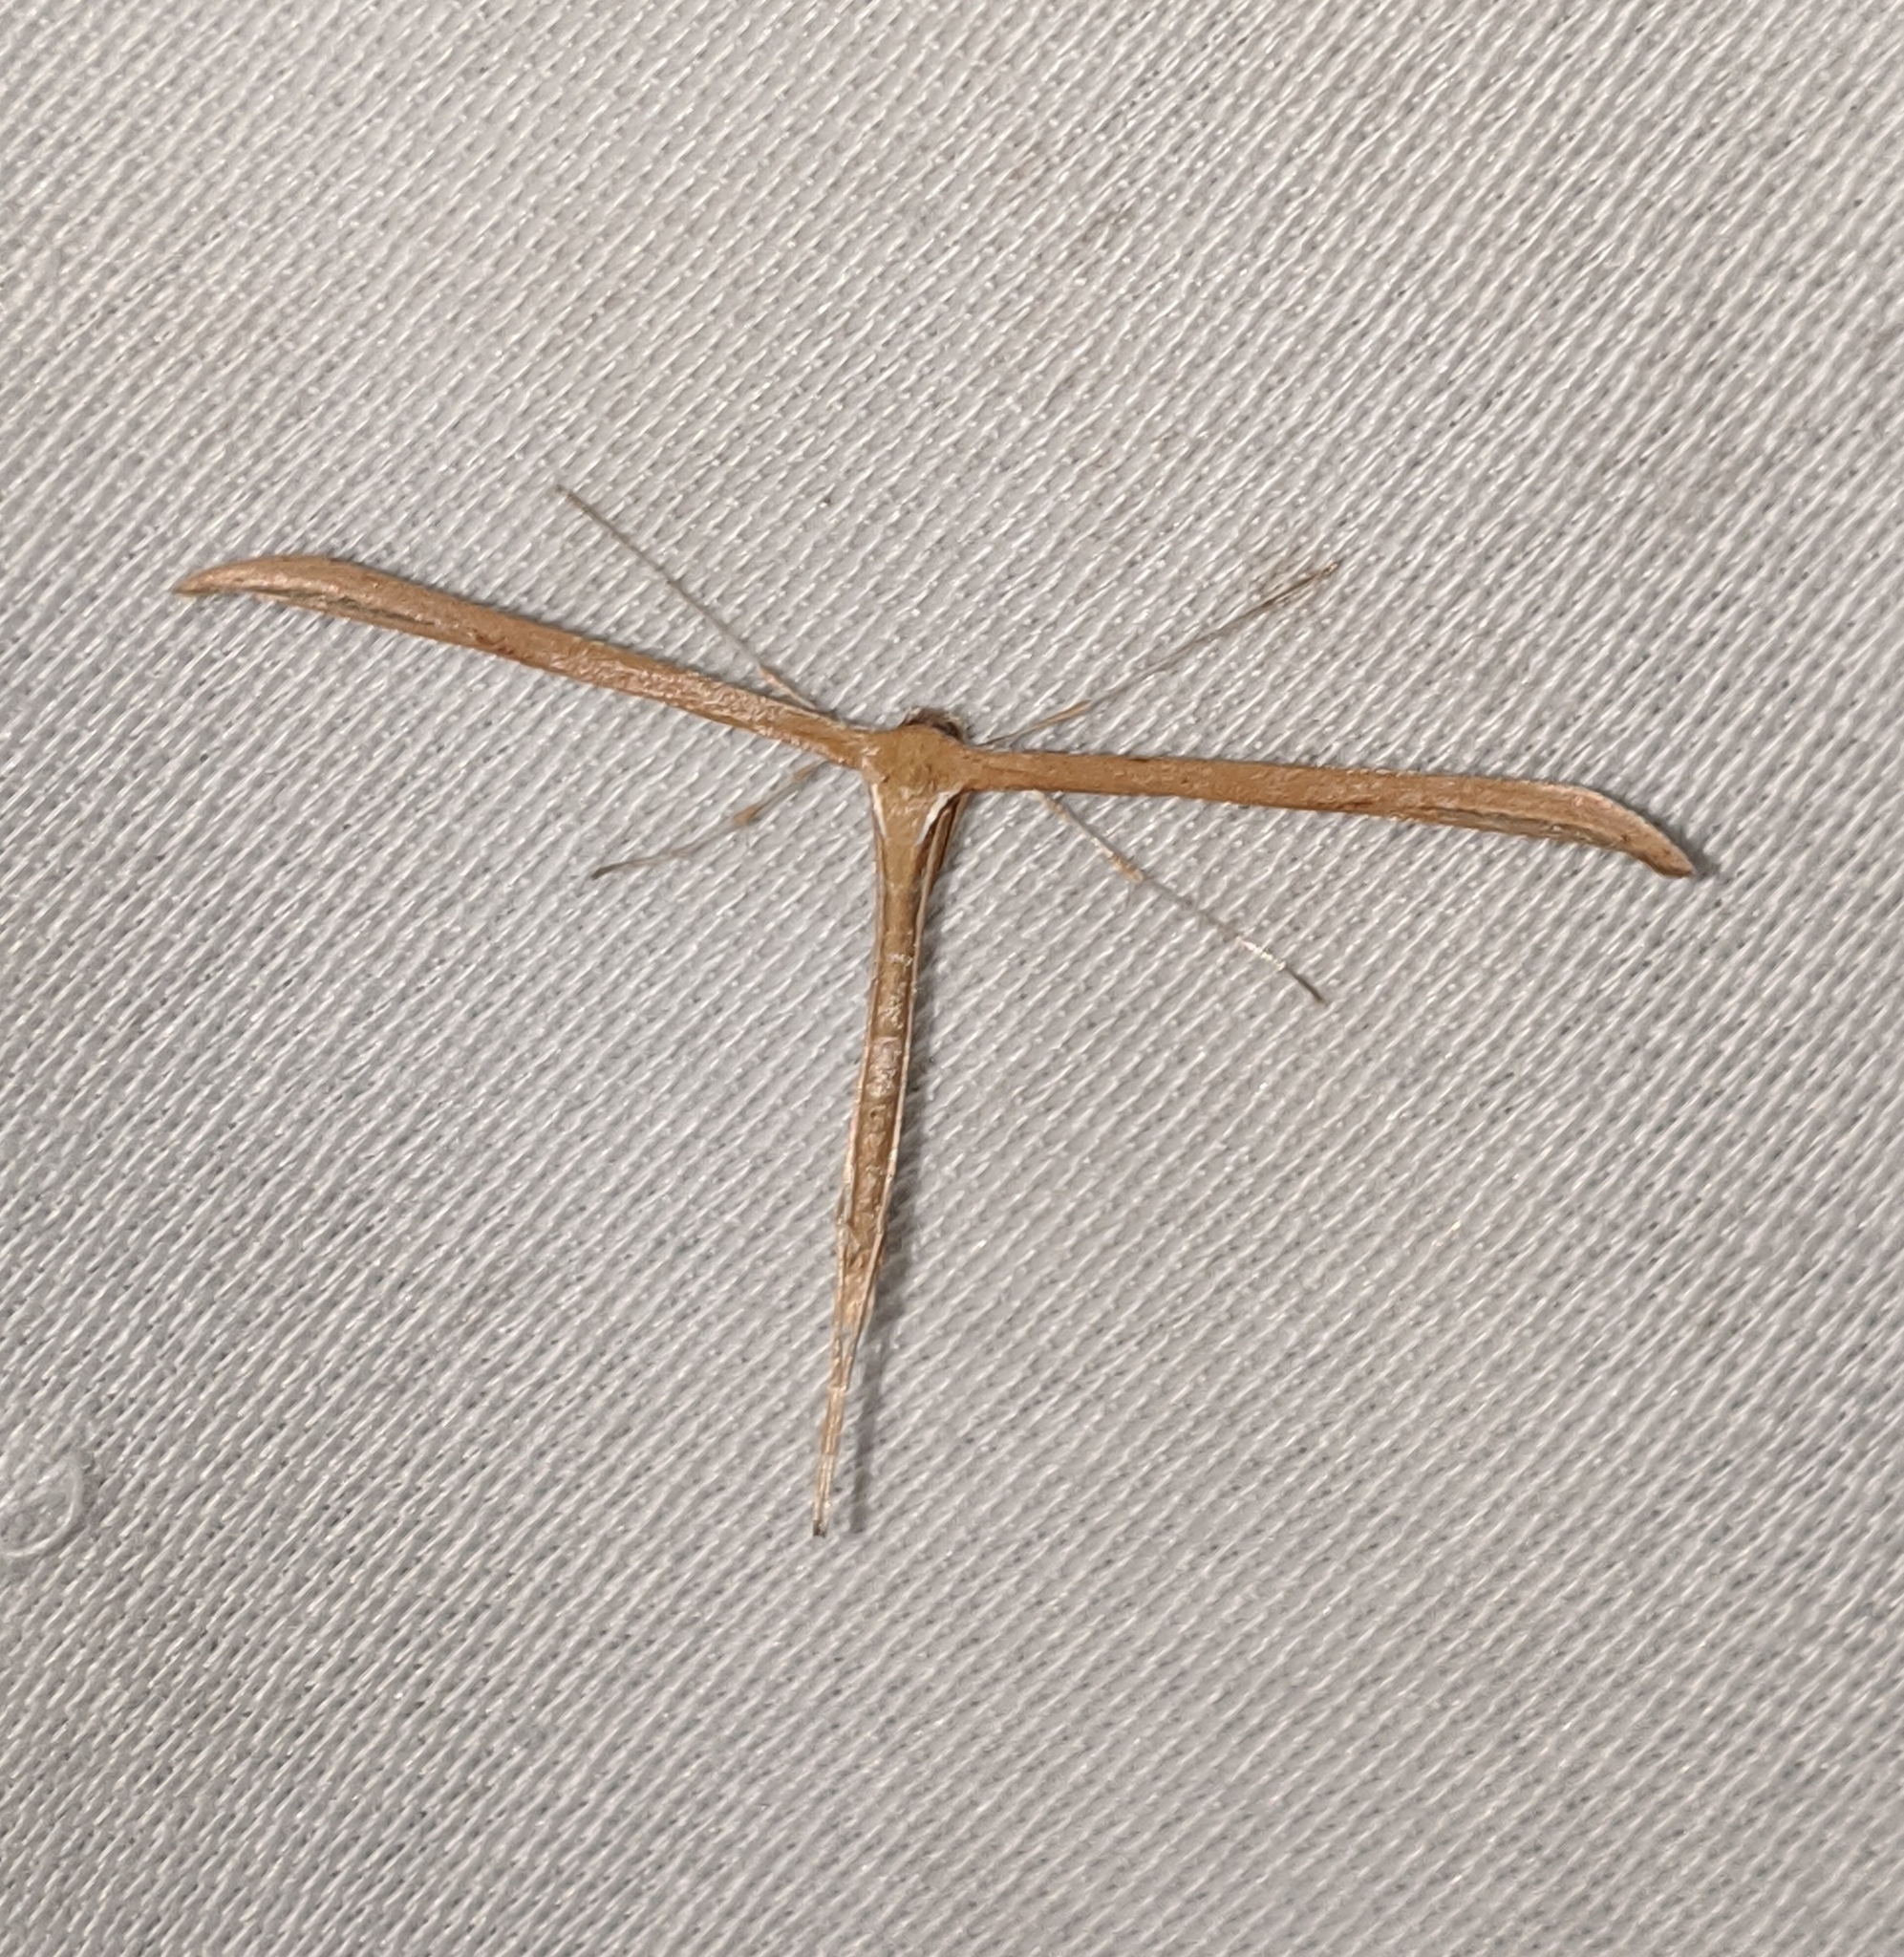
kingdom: Animalia
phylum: Arthropoda
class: Insecta
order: Lepidoptera
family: Pterophoridae
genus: Emmelina
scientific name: Emmelina monodactyla
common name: Common plume
